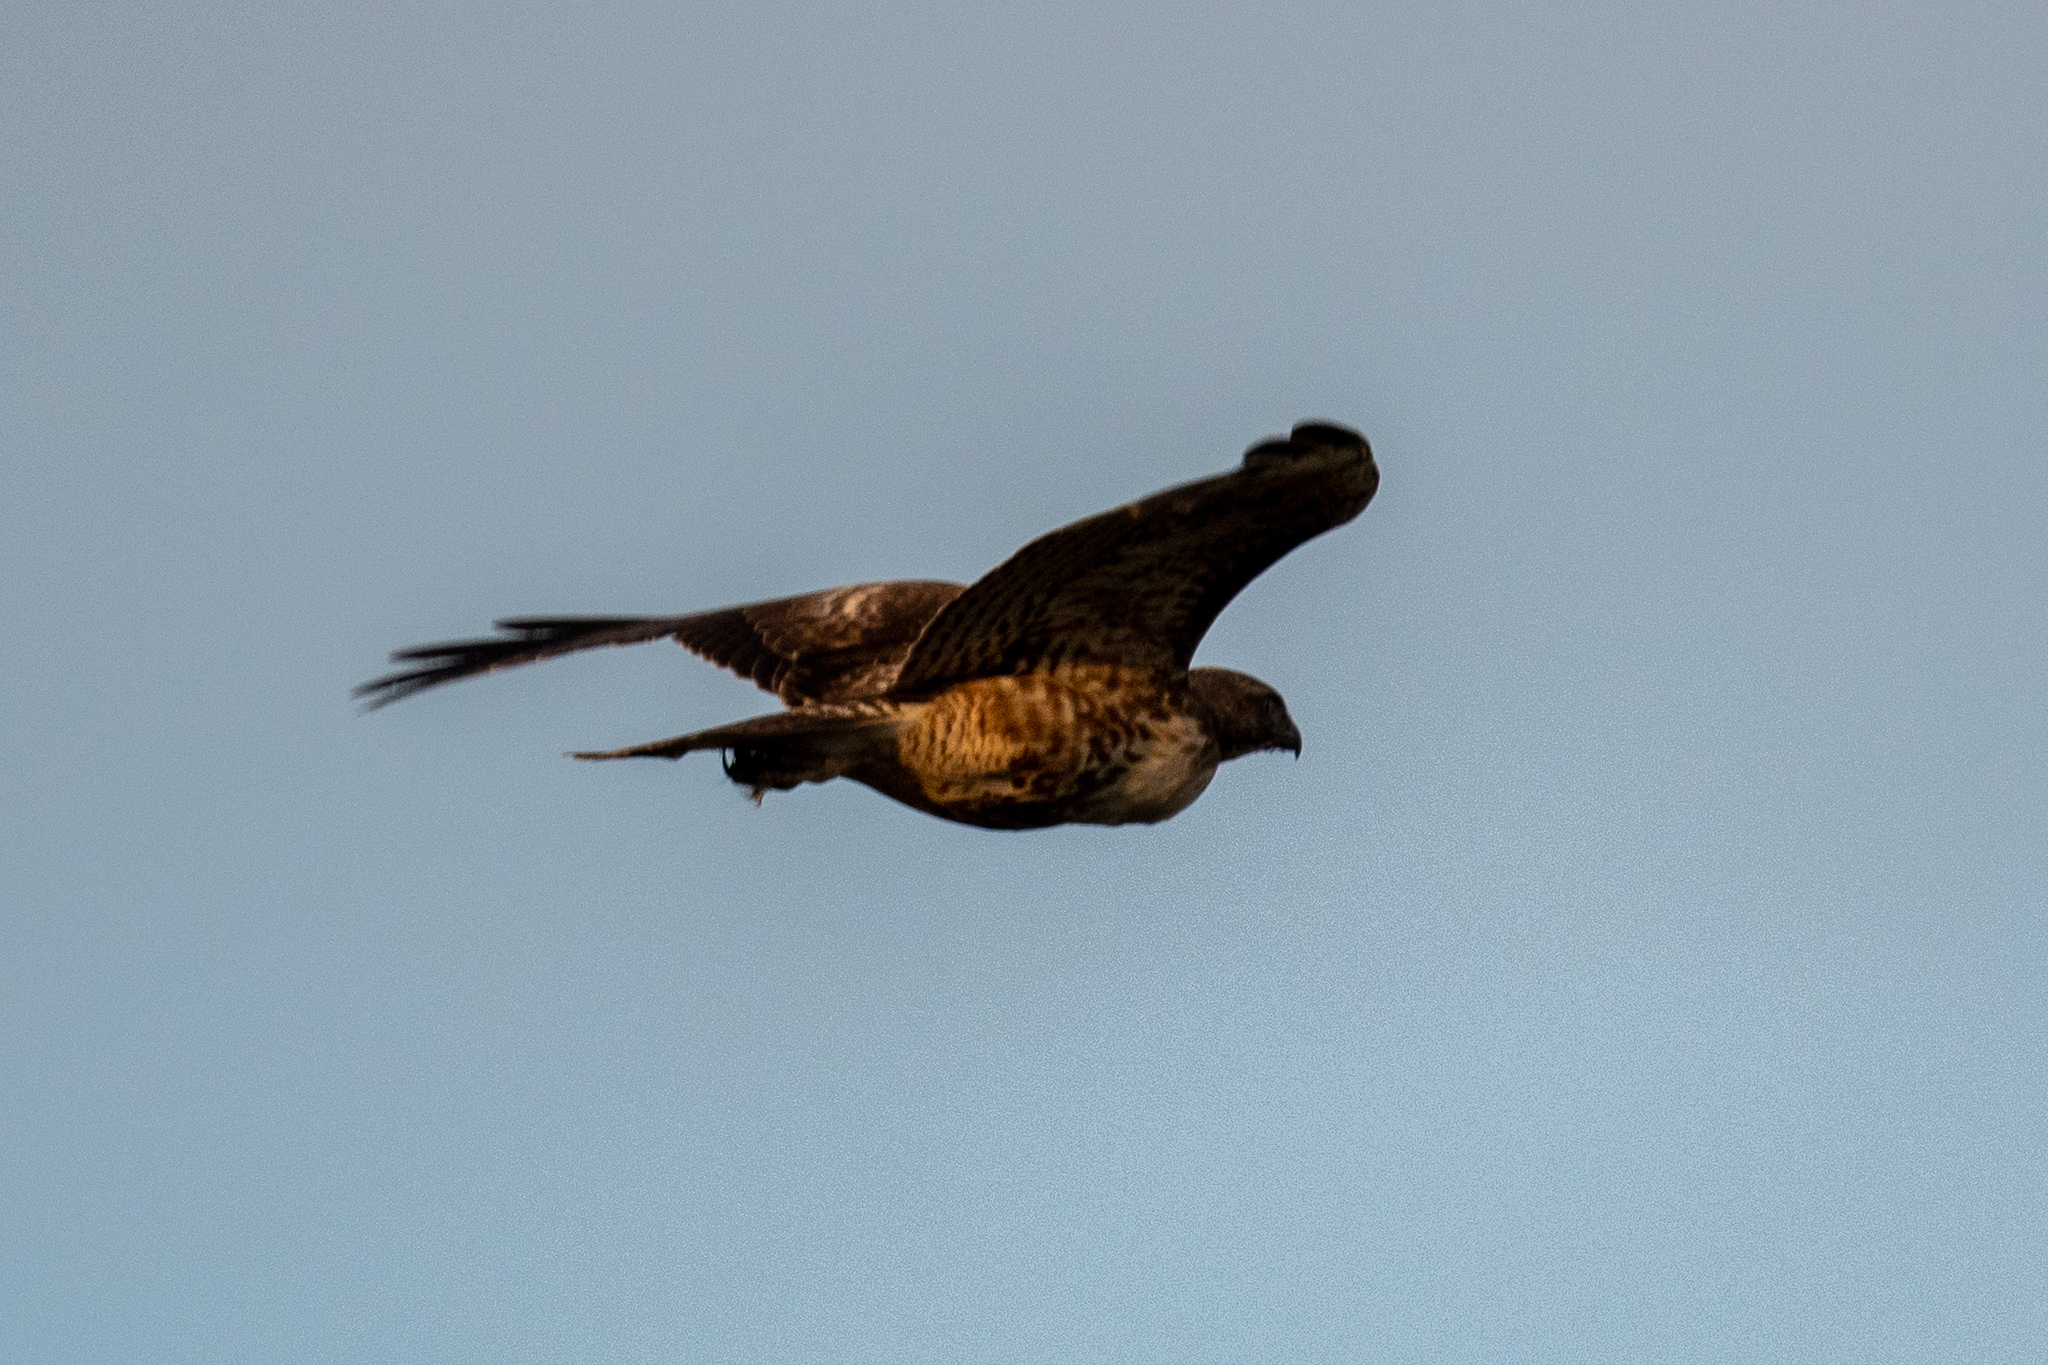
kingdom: Animalia
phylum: Chordata
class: Aves
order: Accipitriformes
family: Accipitridae
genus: Buteo
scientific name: Buteo jamaicensis
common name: Red-tailed hawk
